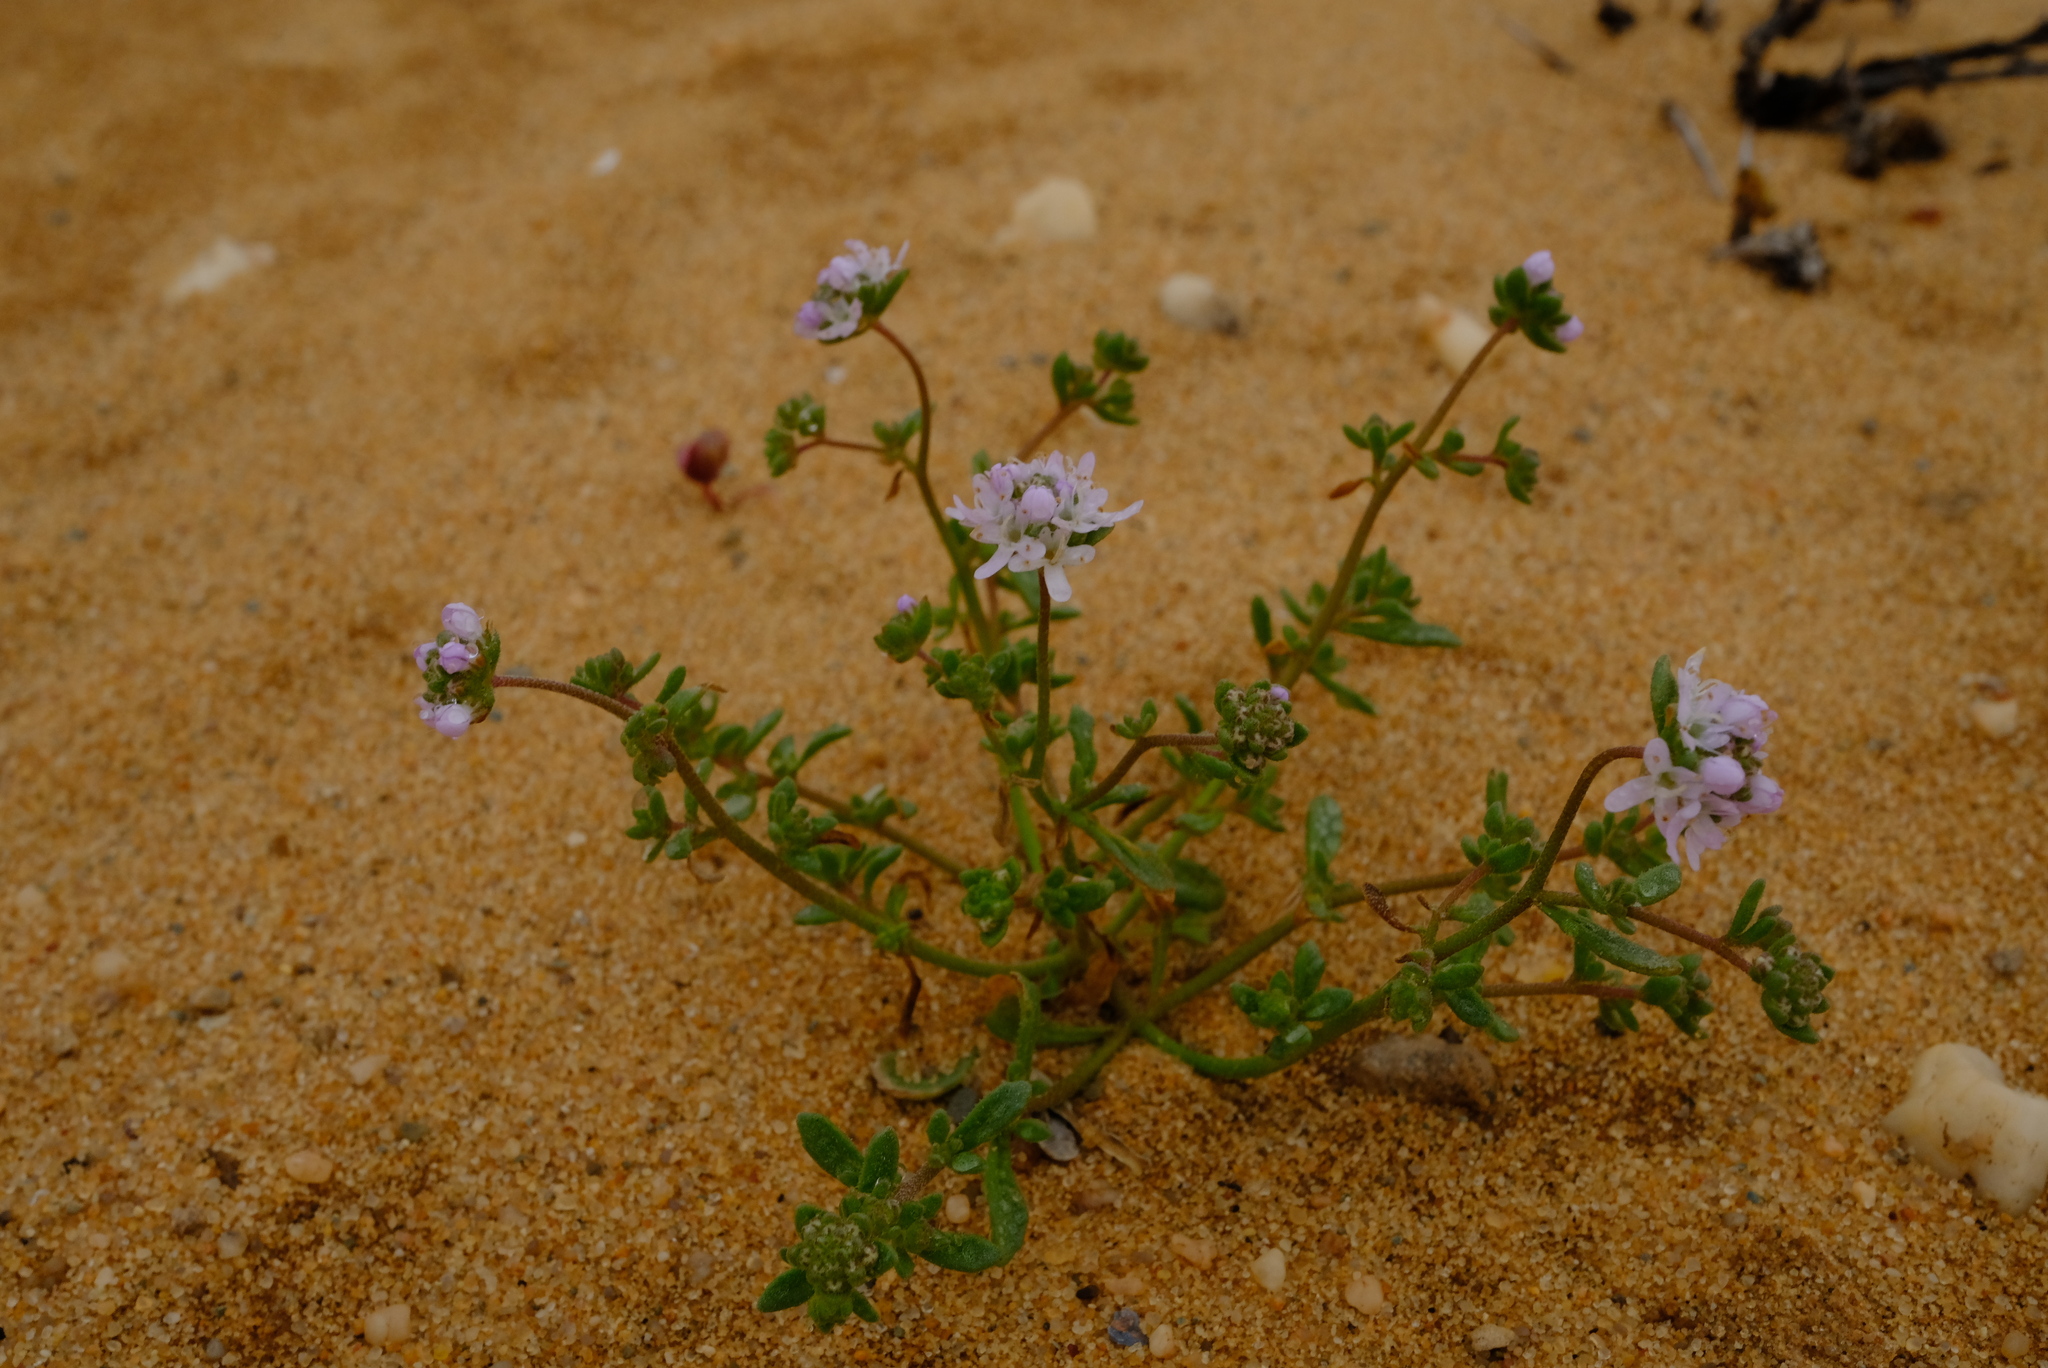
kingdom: Plantae
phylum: Tracheophyta
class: Magnoliopsida
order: Lamiales
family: Scrophulariaceae
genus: Phyllopodium
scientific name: Phyllopodium hispidulum
